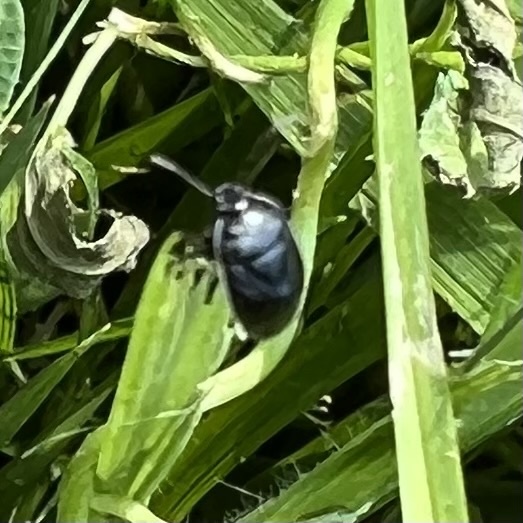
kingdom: Animalia
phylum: Arthropoda
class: Insecta
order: Hemiptera
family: Cydnidae
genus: Sehirus
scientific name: Sehirus cinctus
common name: White-margined burrower bug
